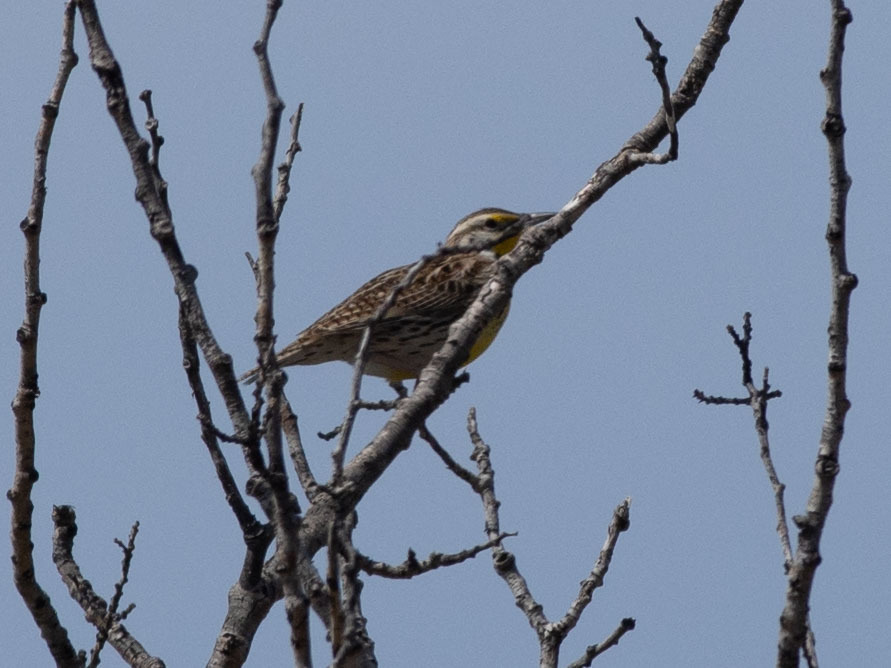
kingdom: Animalia
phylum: Chordata
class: Aves
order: Passeriformes
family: Icteridae
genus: Sturnella
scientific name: Sturnella neglecta
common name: Western meadowlark
